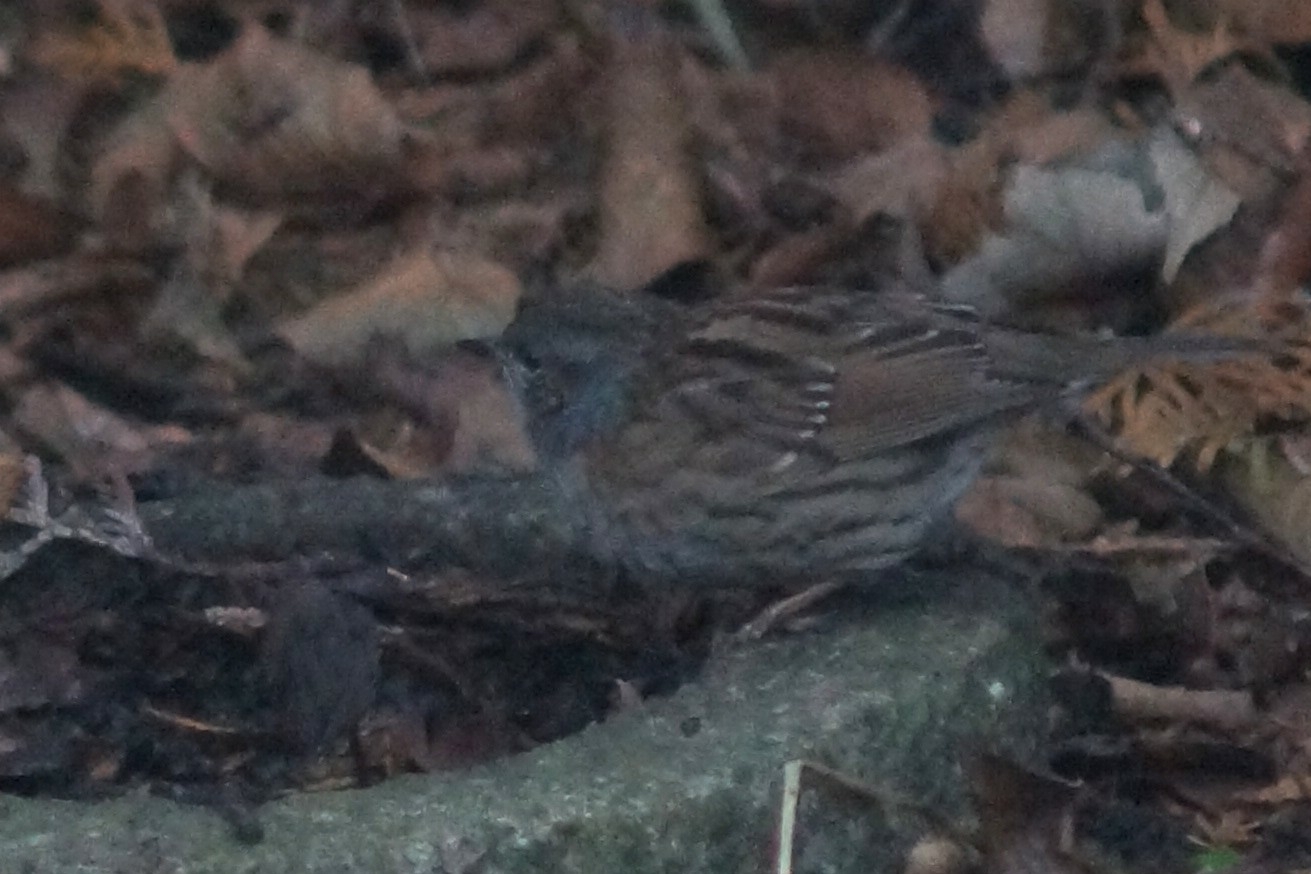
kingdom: Animalia
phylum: Chordata
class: Aves
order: Passeriformes
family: Prunellidae
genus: Prunella
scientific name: Prunella modularis
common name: Dunnock
